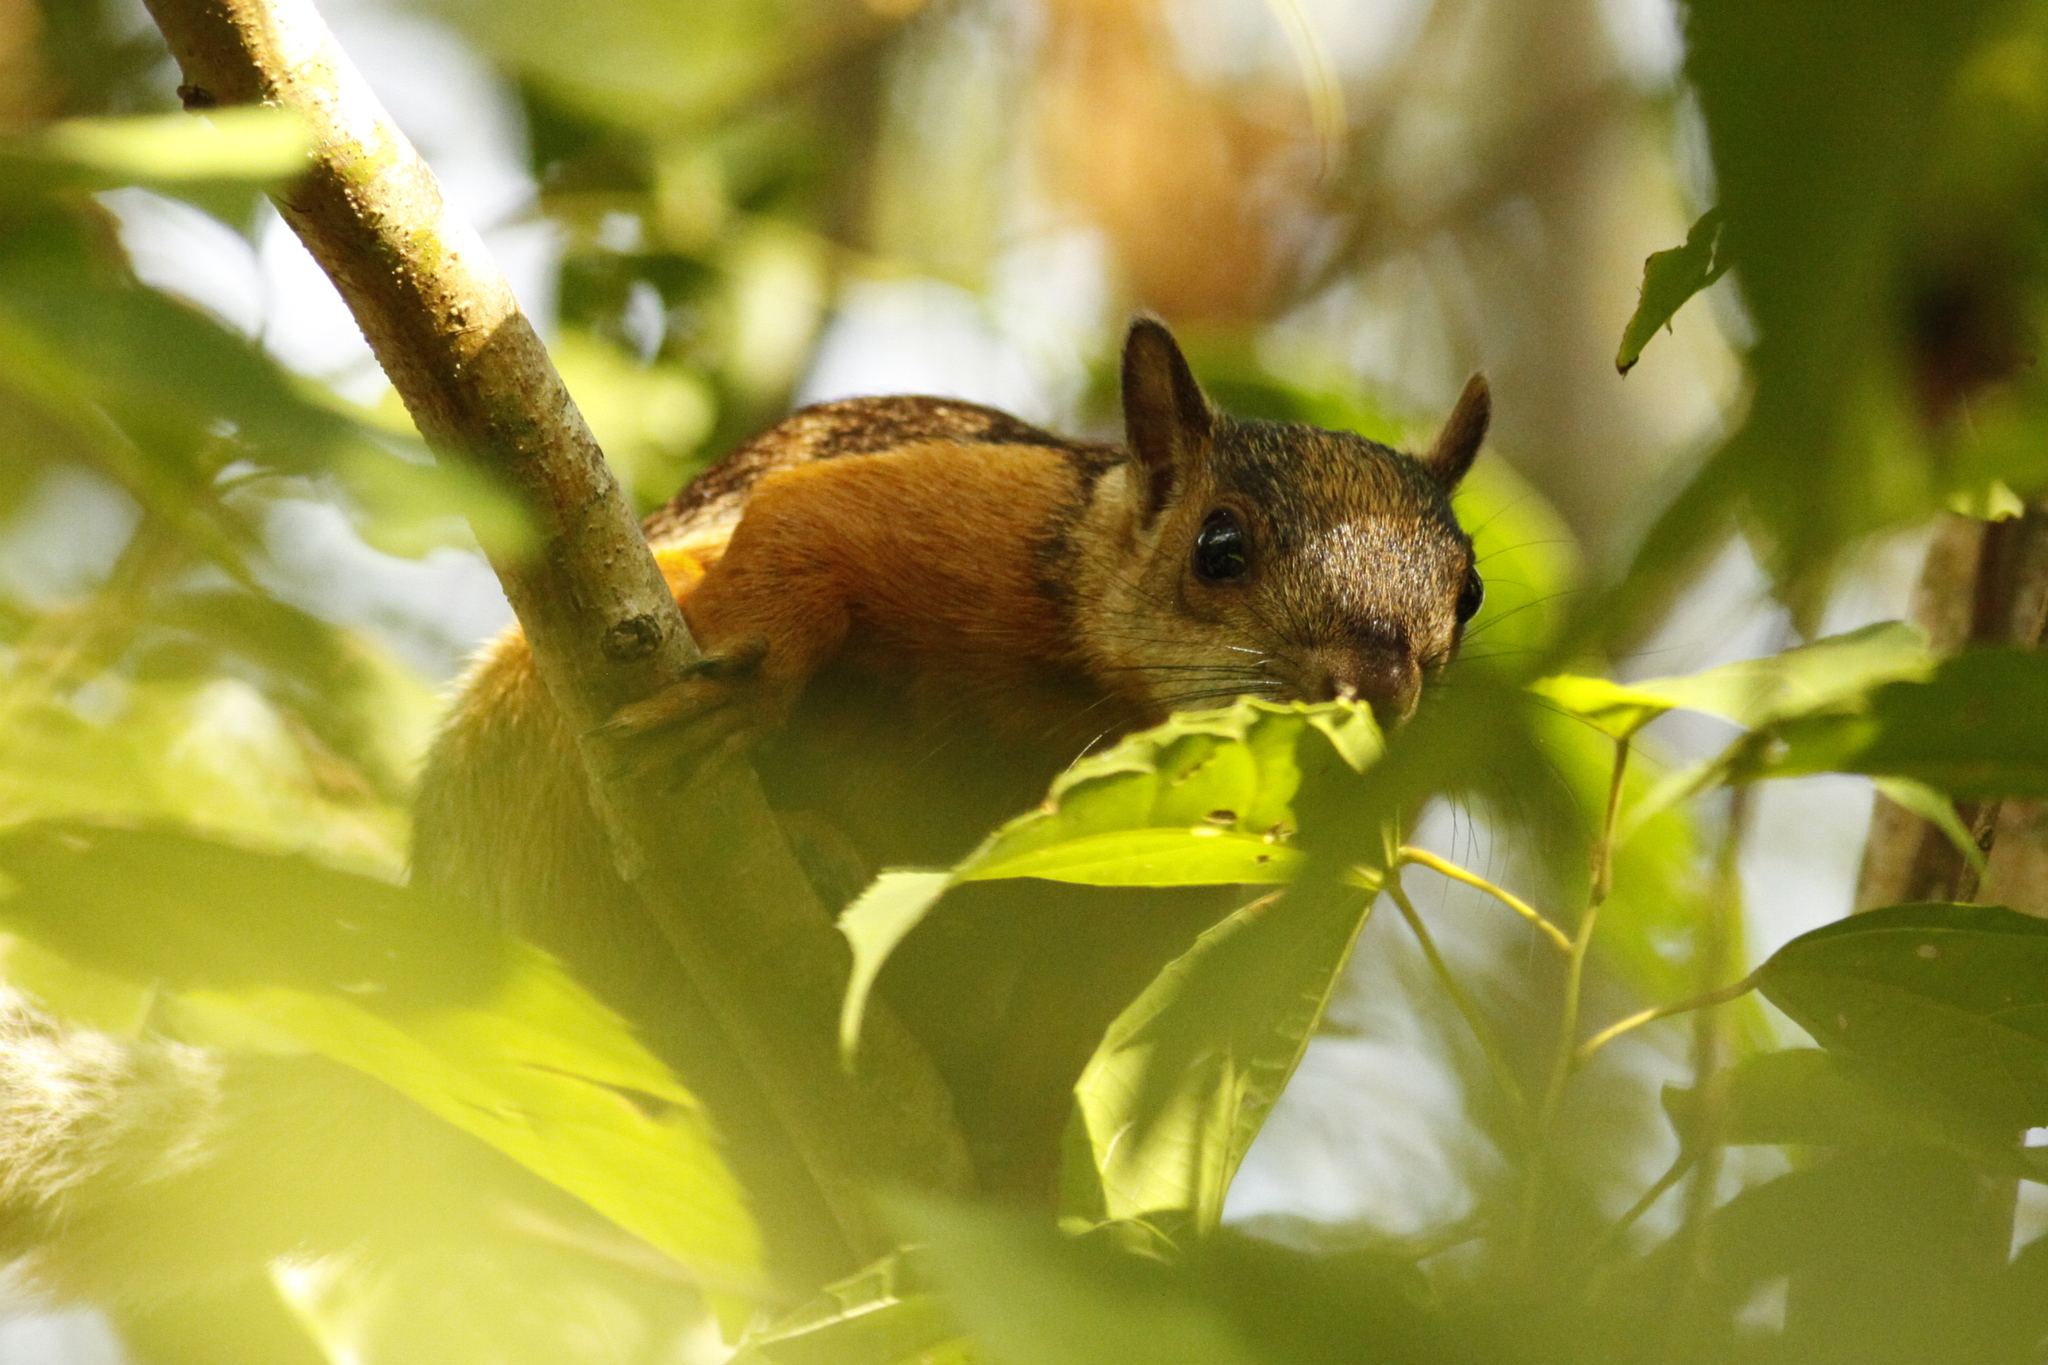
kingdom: Animalia
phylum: Chordata
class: Mammalia
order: Rodentia
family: Sciuridae
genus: Sciurus
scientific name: Sciurus variegatoides
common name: Variegated squirrel
